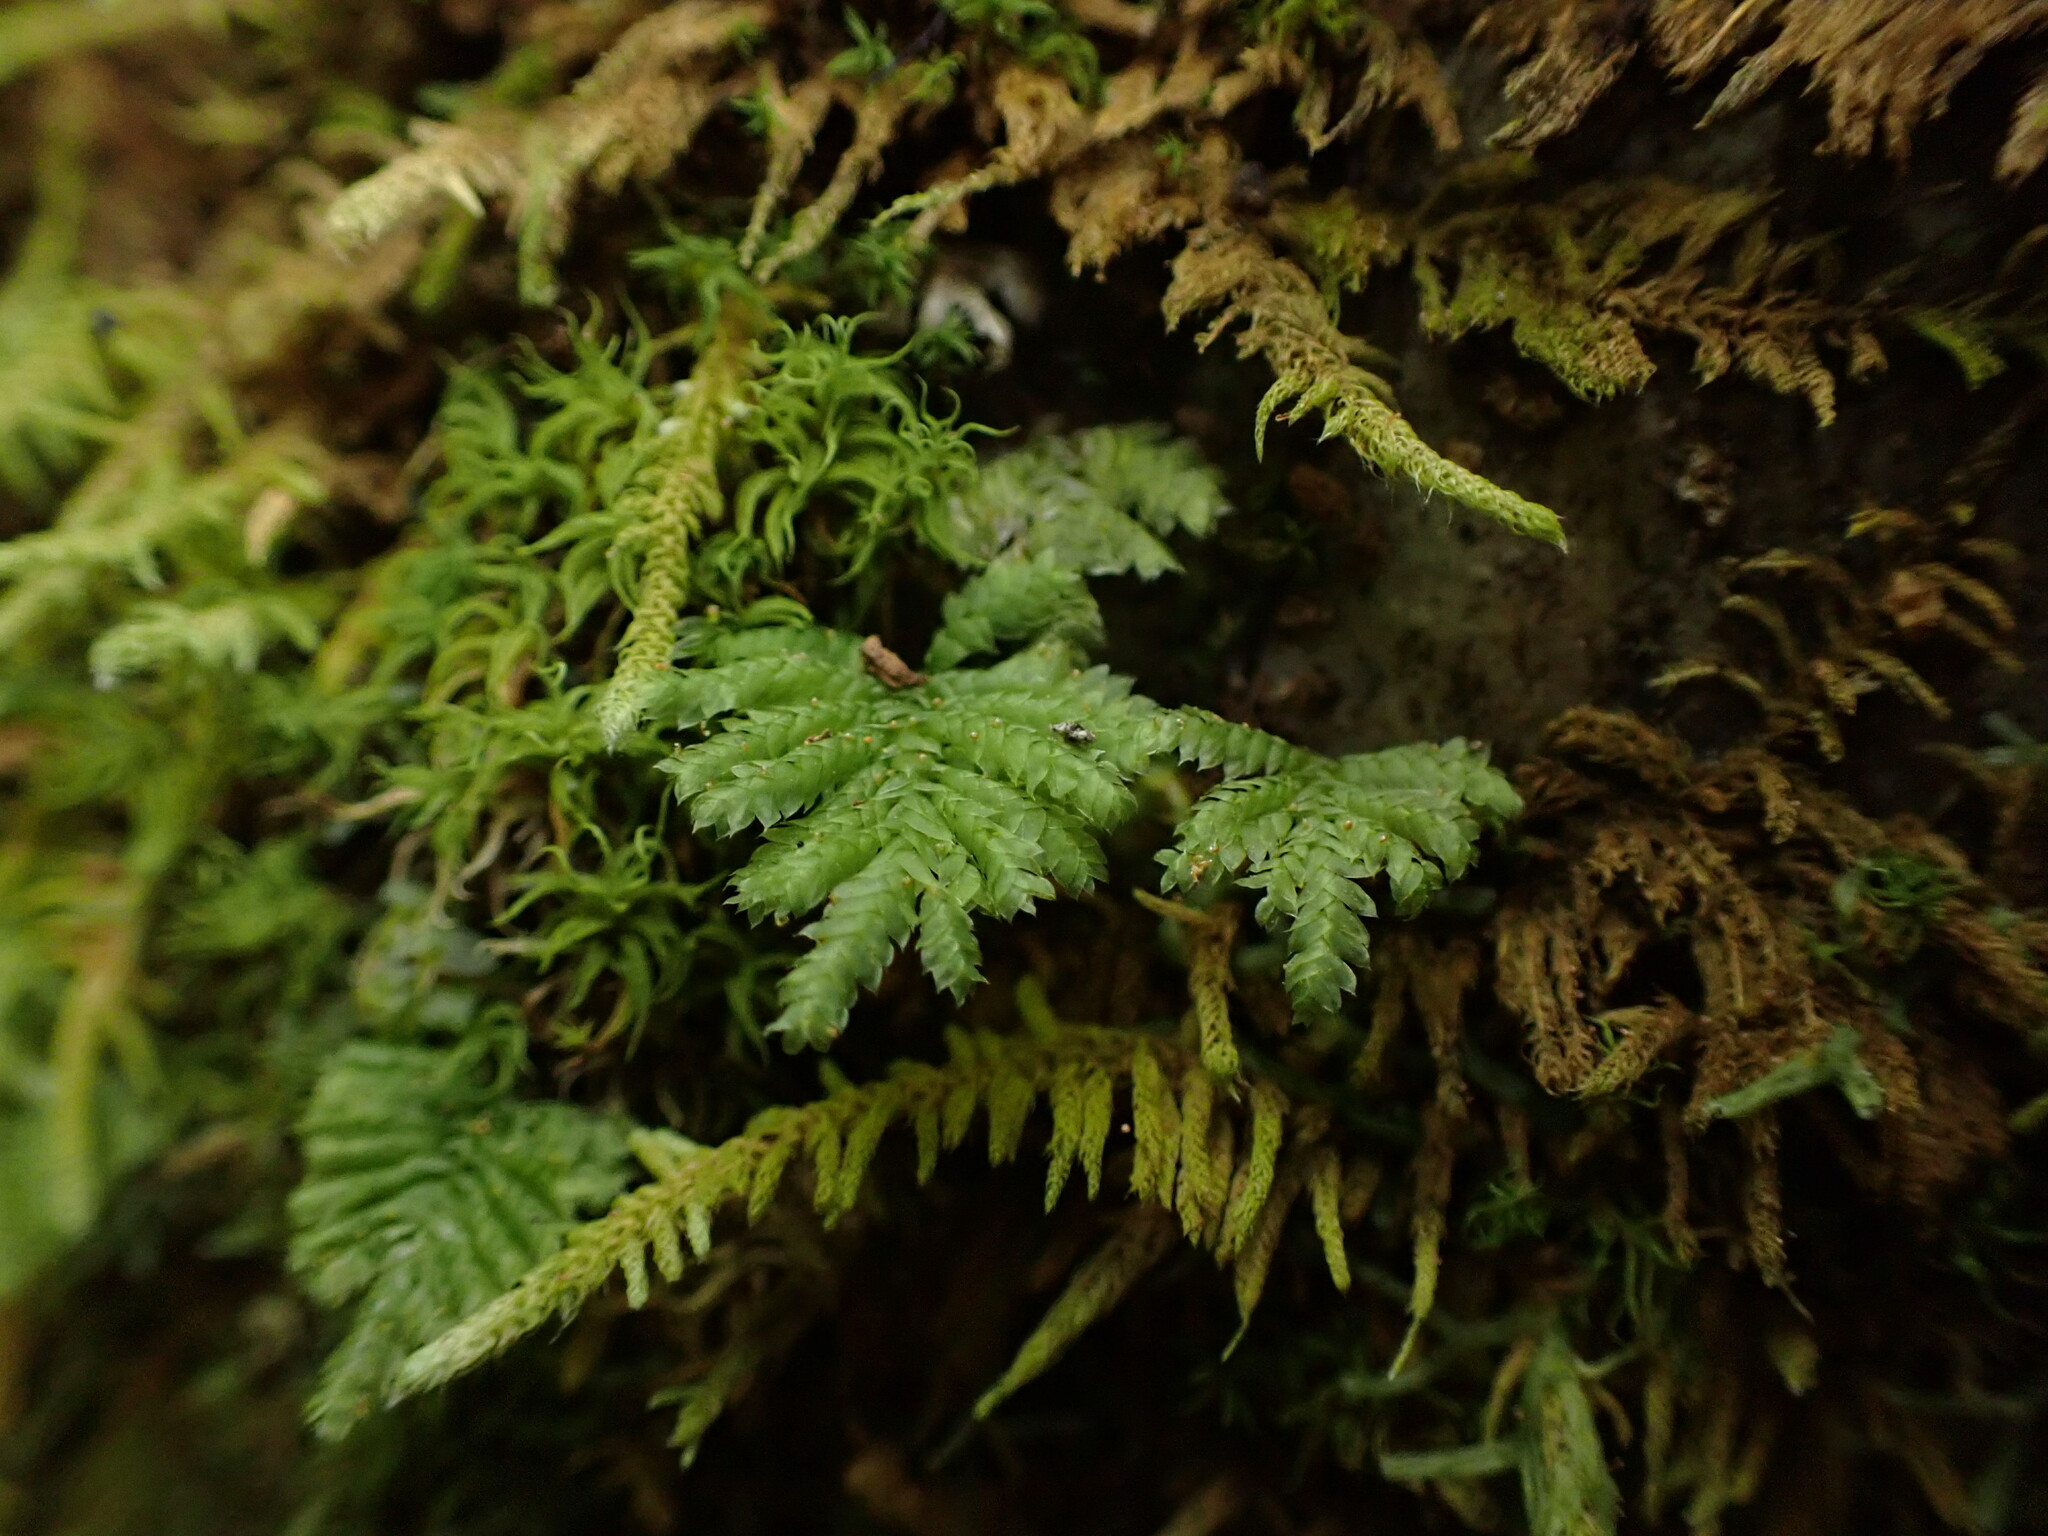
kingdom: Plantae
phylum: Bryophyta
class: Bryopsida
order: Hypopterygiales
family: Hypopterygiaceae
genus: Hypopterygium
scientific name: Hypopterygium flavolimbatum
